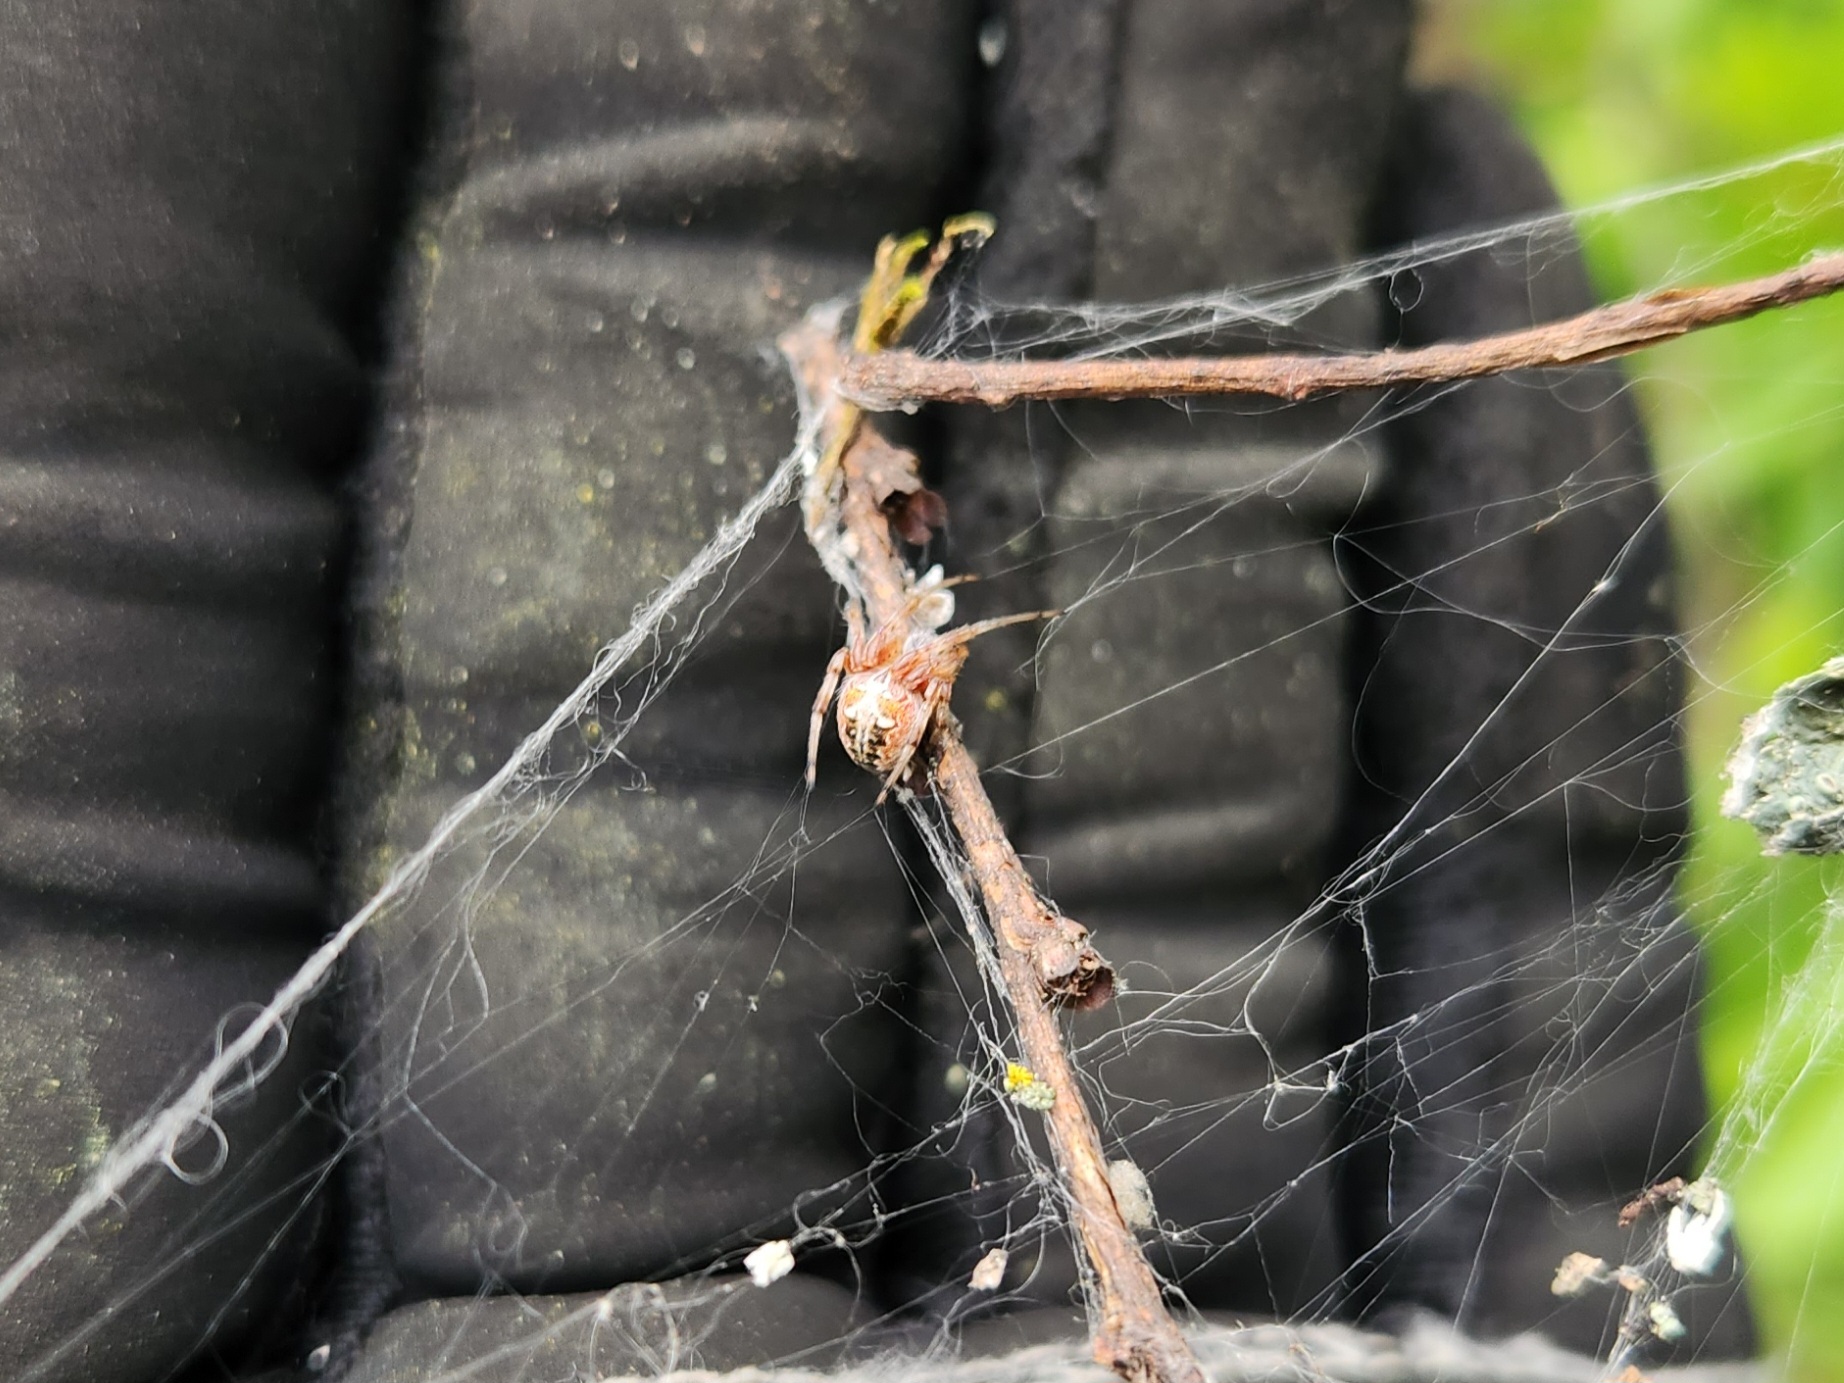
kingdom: Animalia
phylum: Arthropoda
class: Arachnida
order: Araneae
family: Araneidae
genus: Metepeira
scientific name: Metepeira labyrinthea
